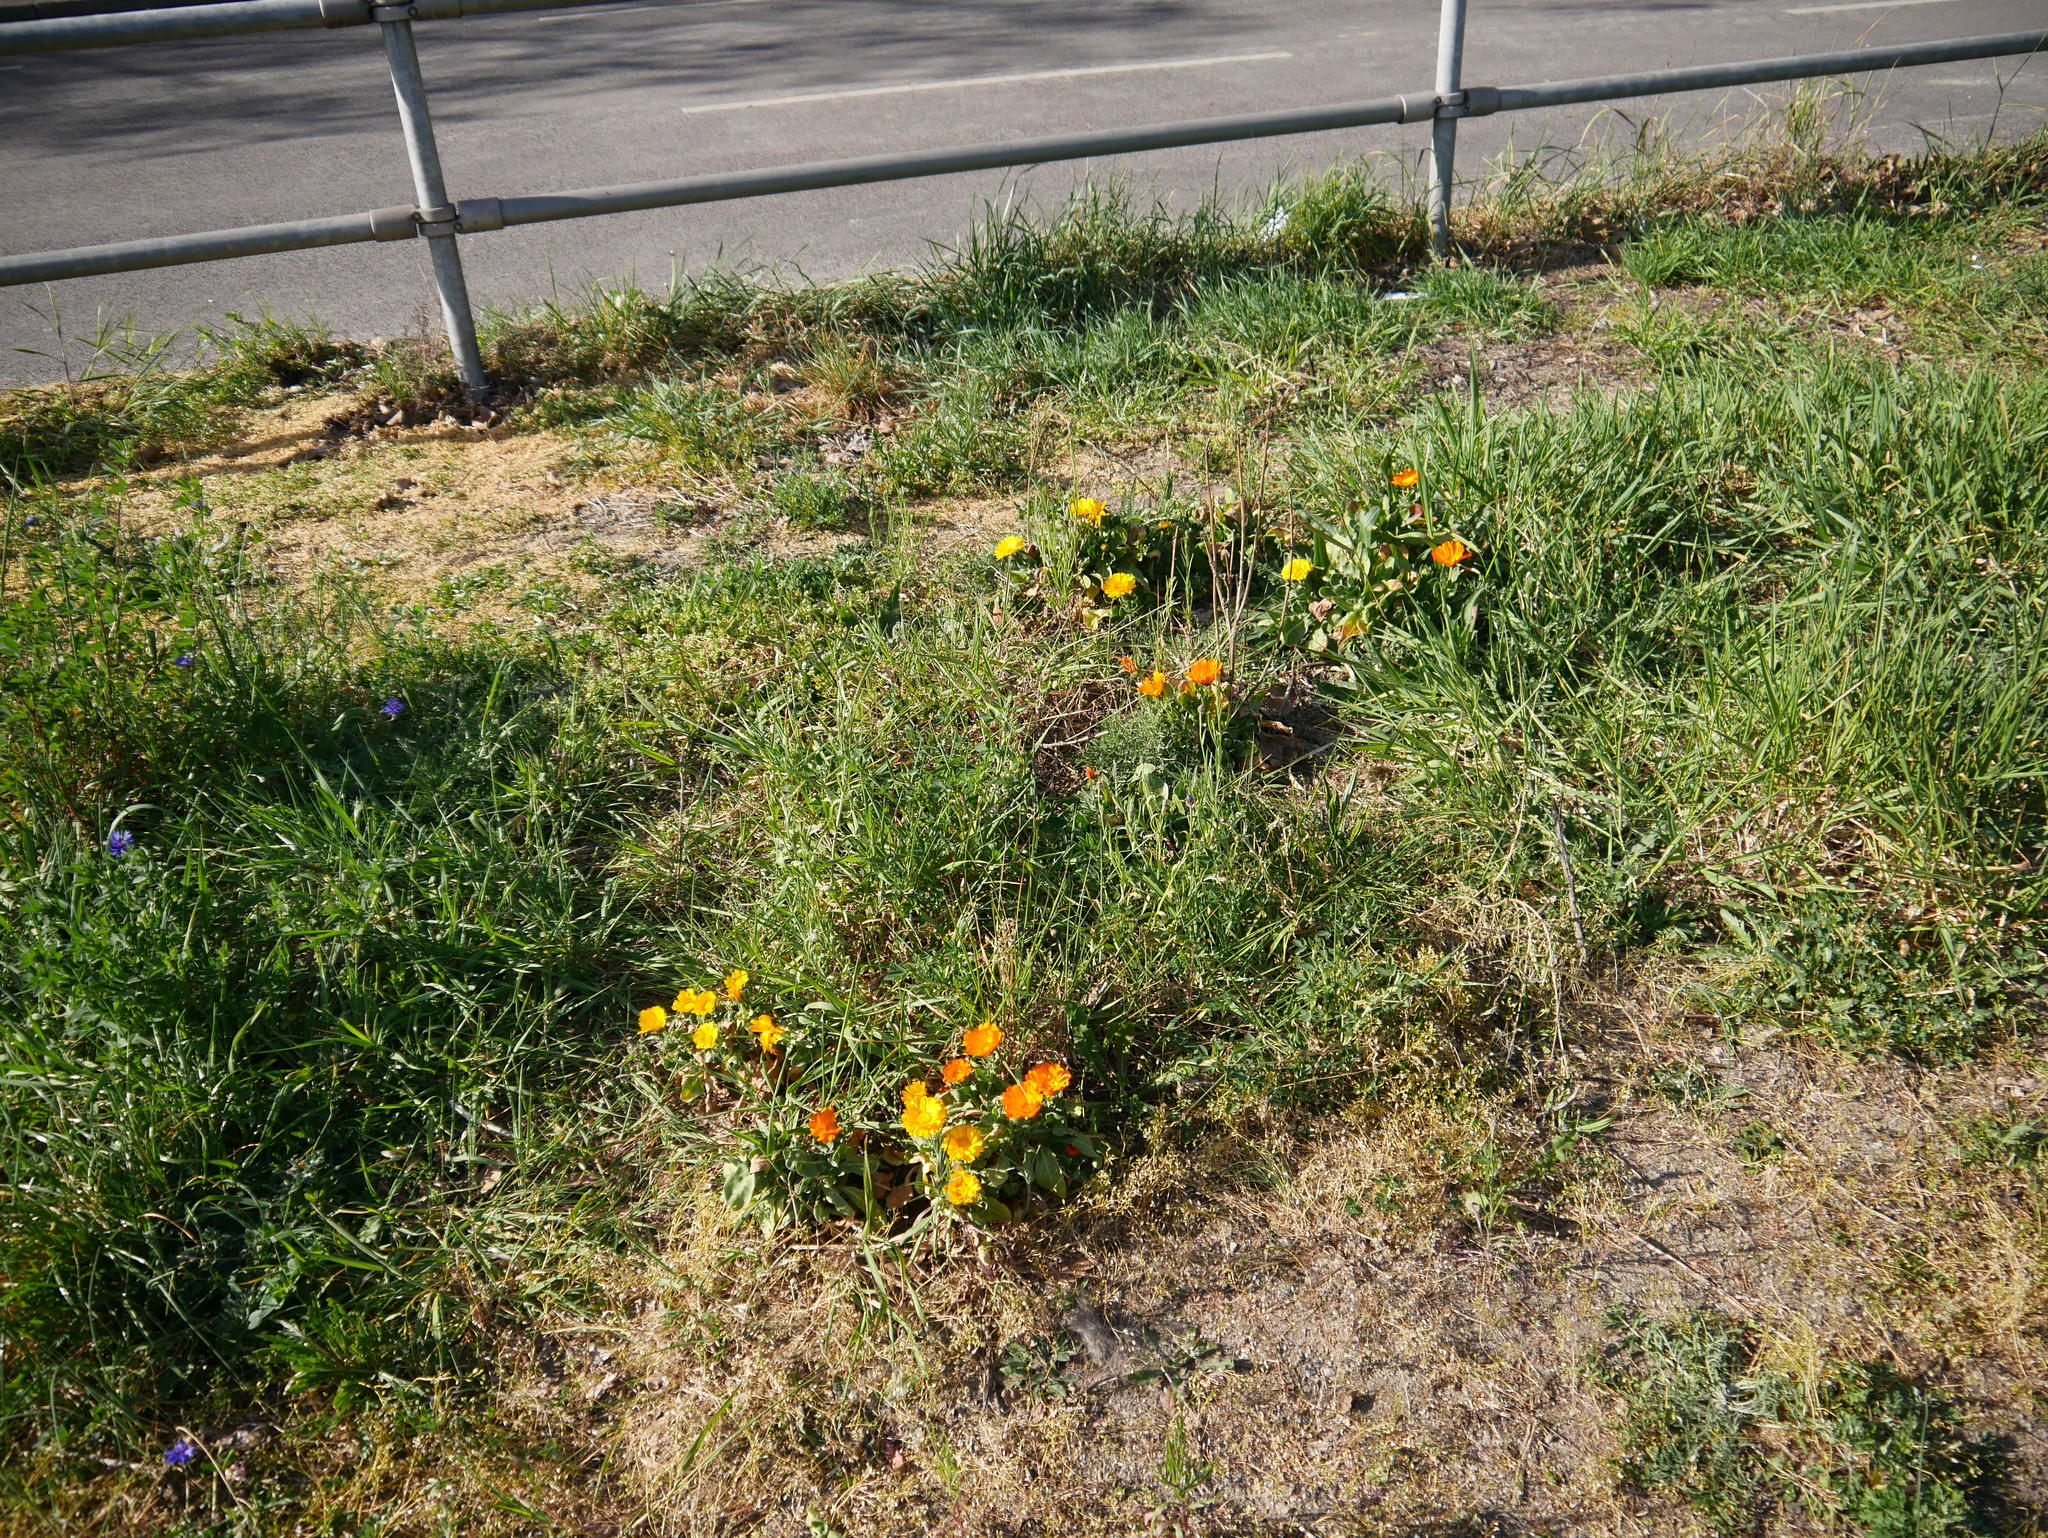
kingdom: Plantae
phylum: Tracheophyta
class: Magnoliopsida
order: Asterales
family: Asteraceae
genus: Calendula
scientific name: Calendula officinalis
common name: Pot marigold
